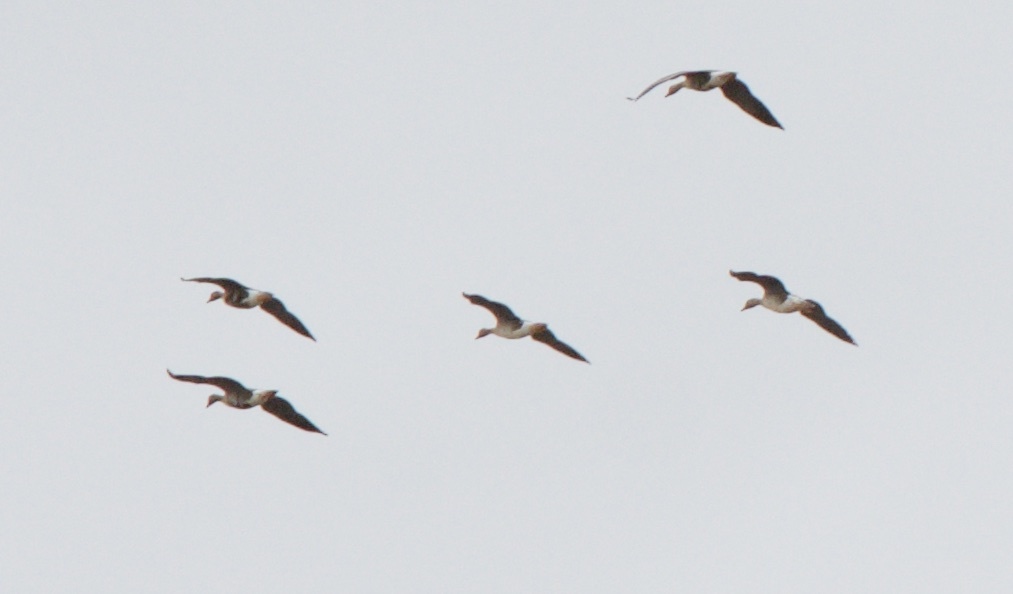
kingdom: Animalia
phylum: Chordata
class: Aves
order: Anseriformes
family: Anatidae
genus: Anser
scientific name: Anser albifrons
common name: Greater white-fronted goose
